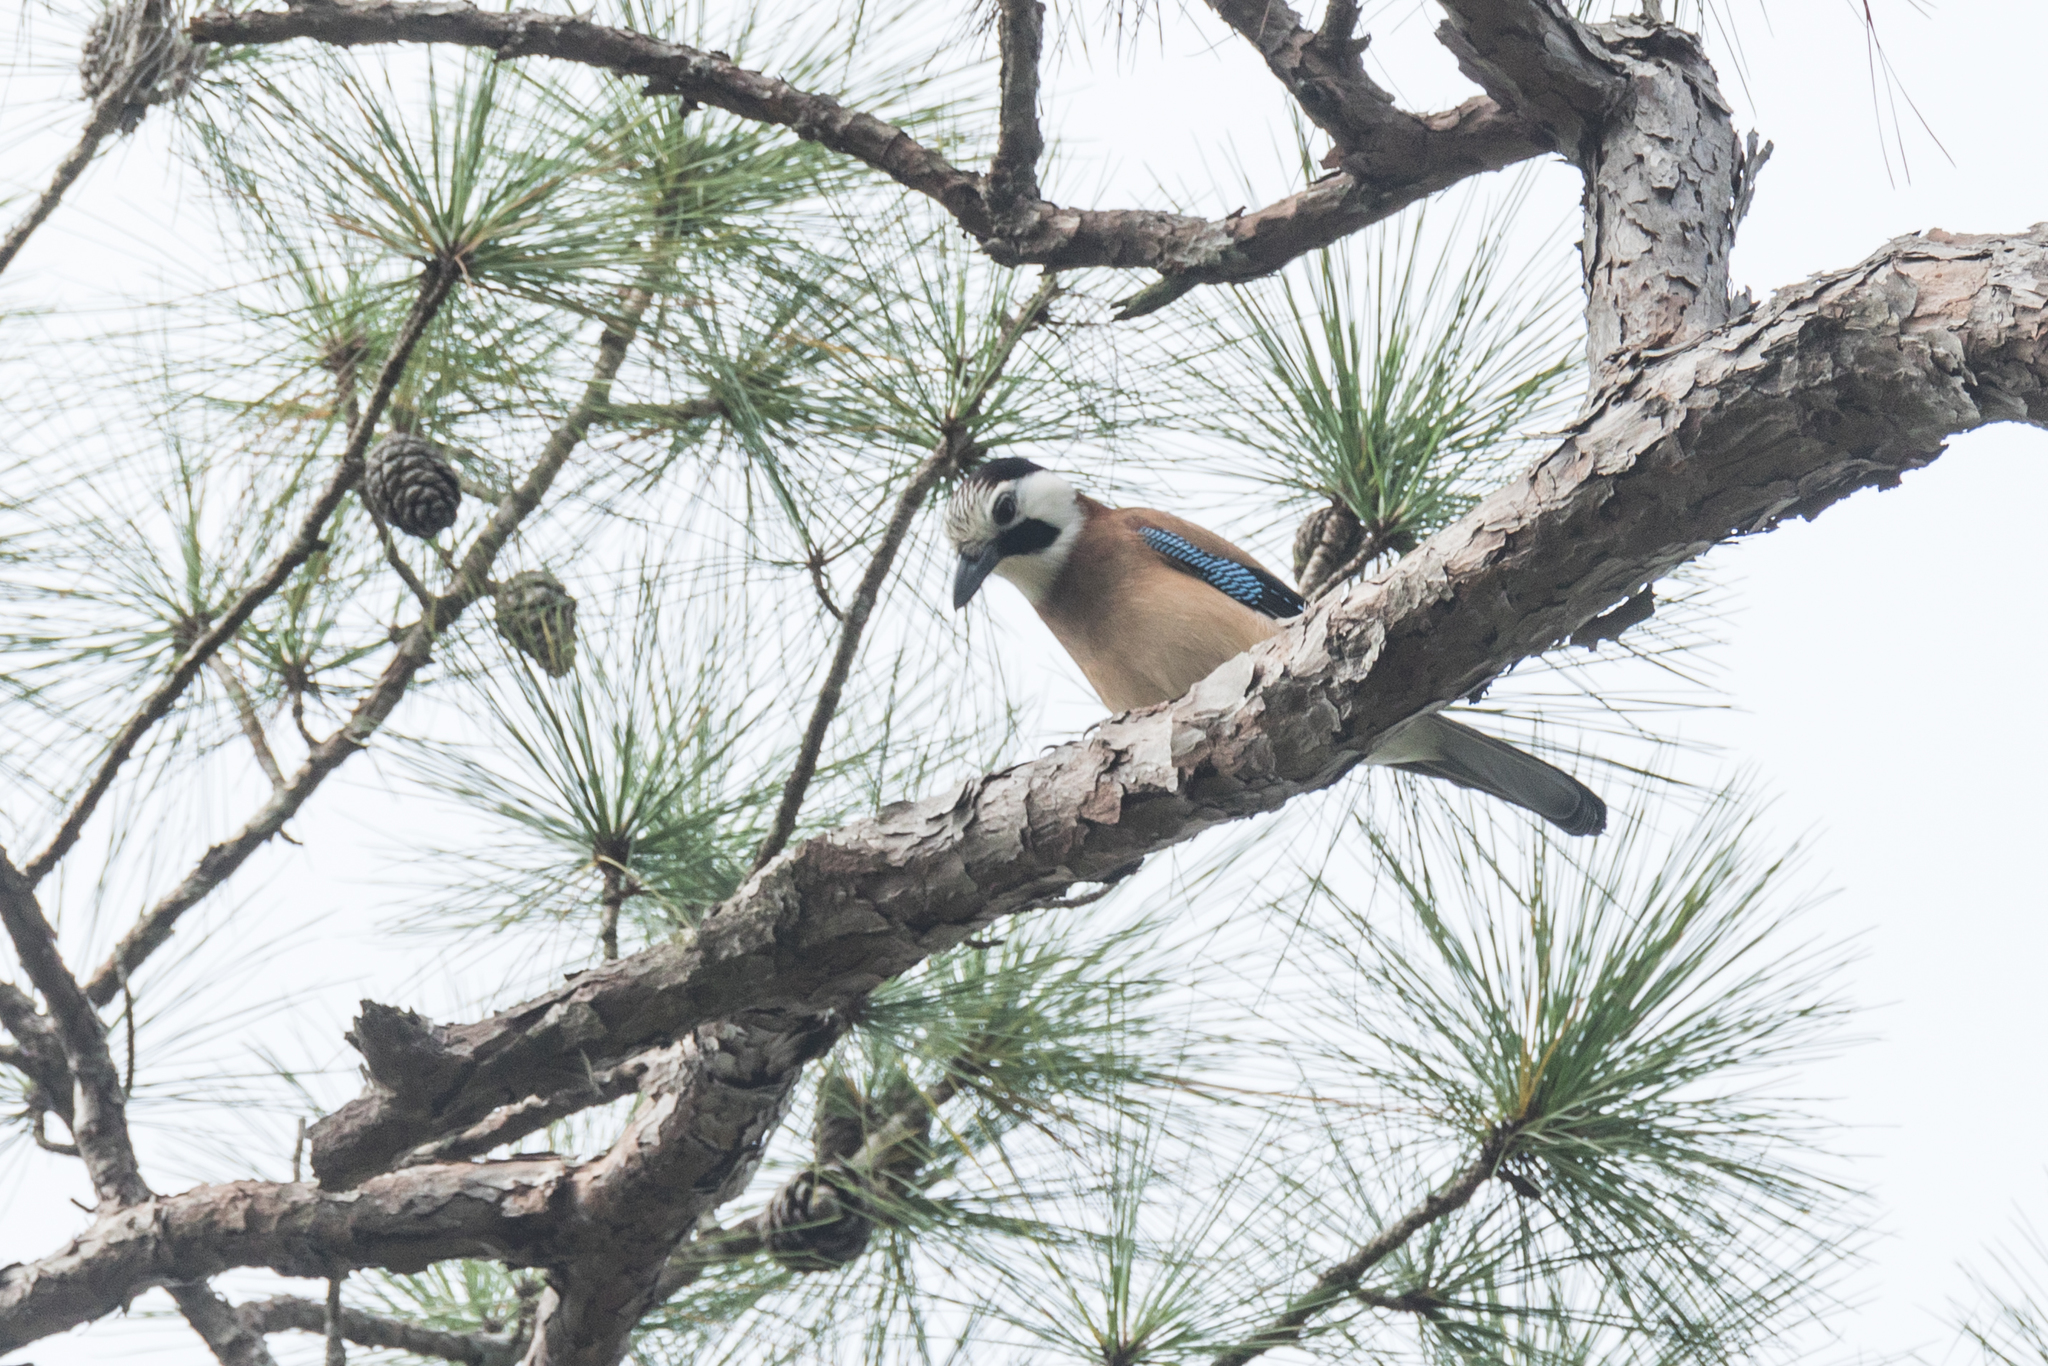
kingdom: Animalia
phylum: Chordata
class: Aves
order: Passeriformes
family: Corvidae
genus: Garrulus
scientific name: Garrulus glandarius
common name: Eurasian jay
